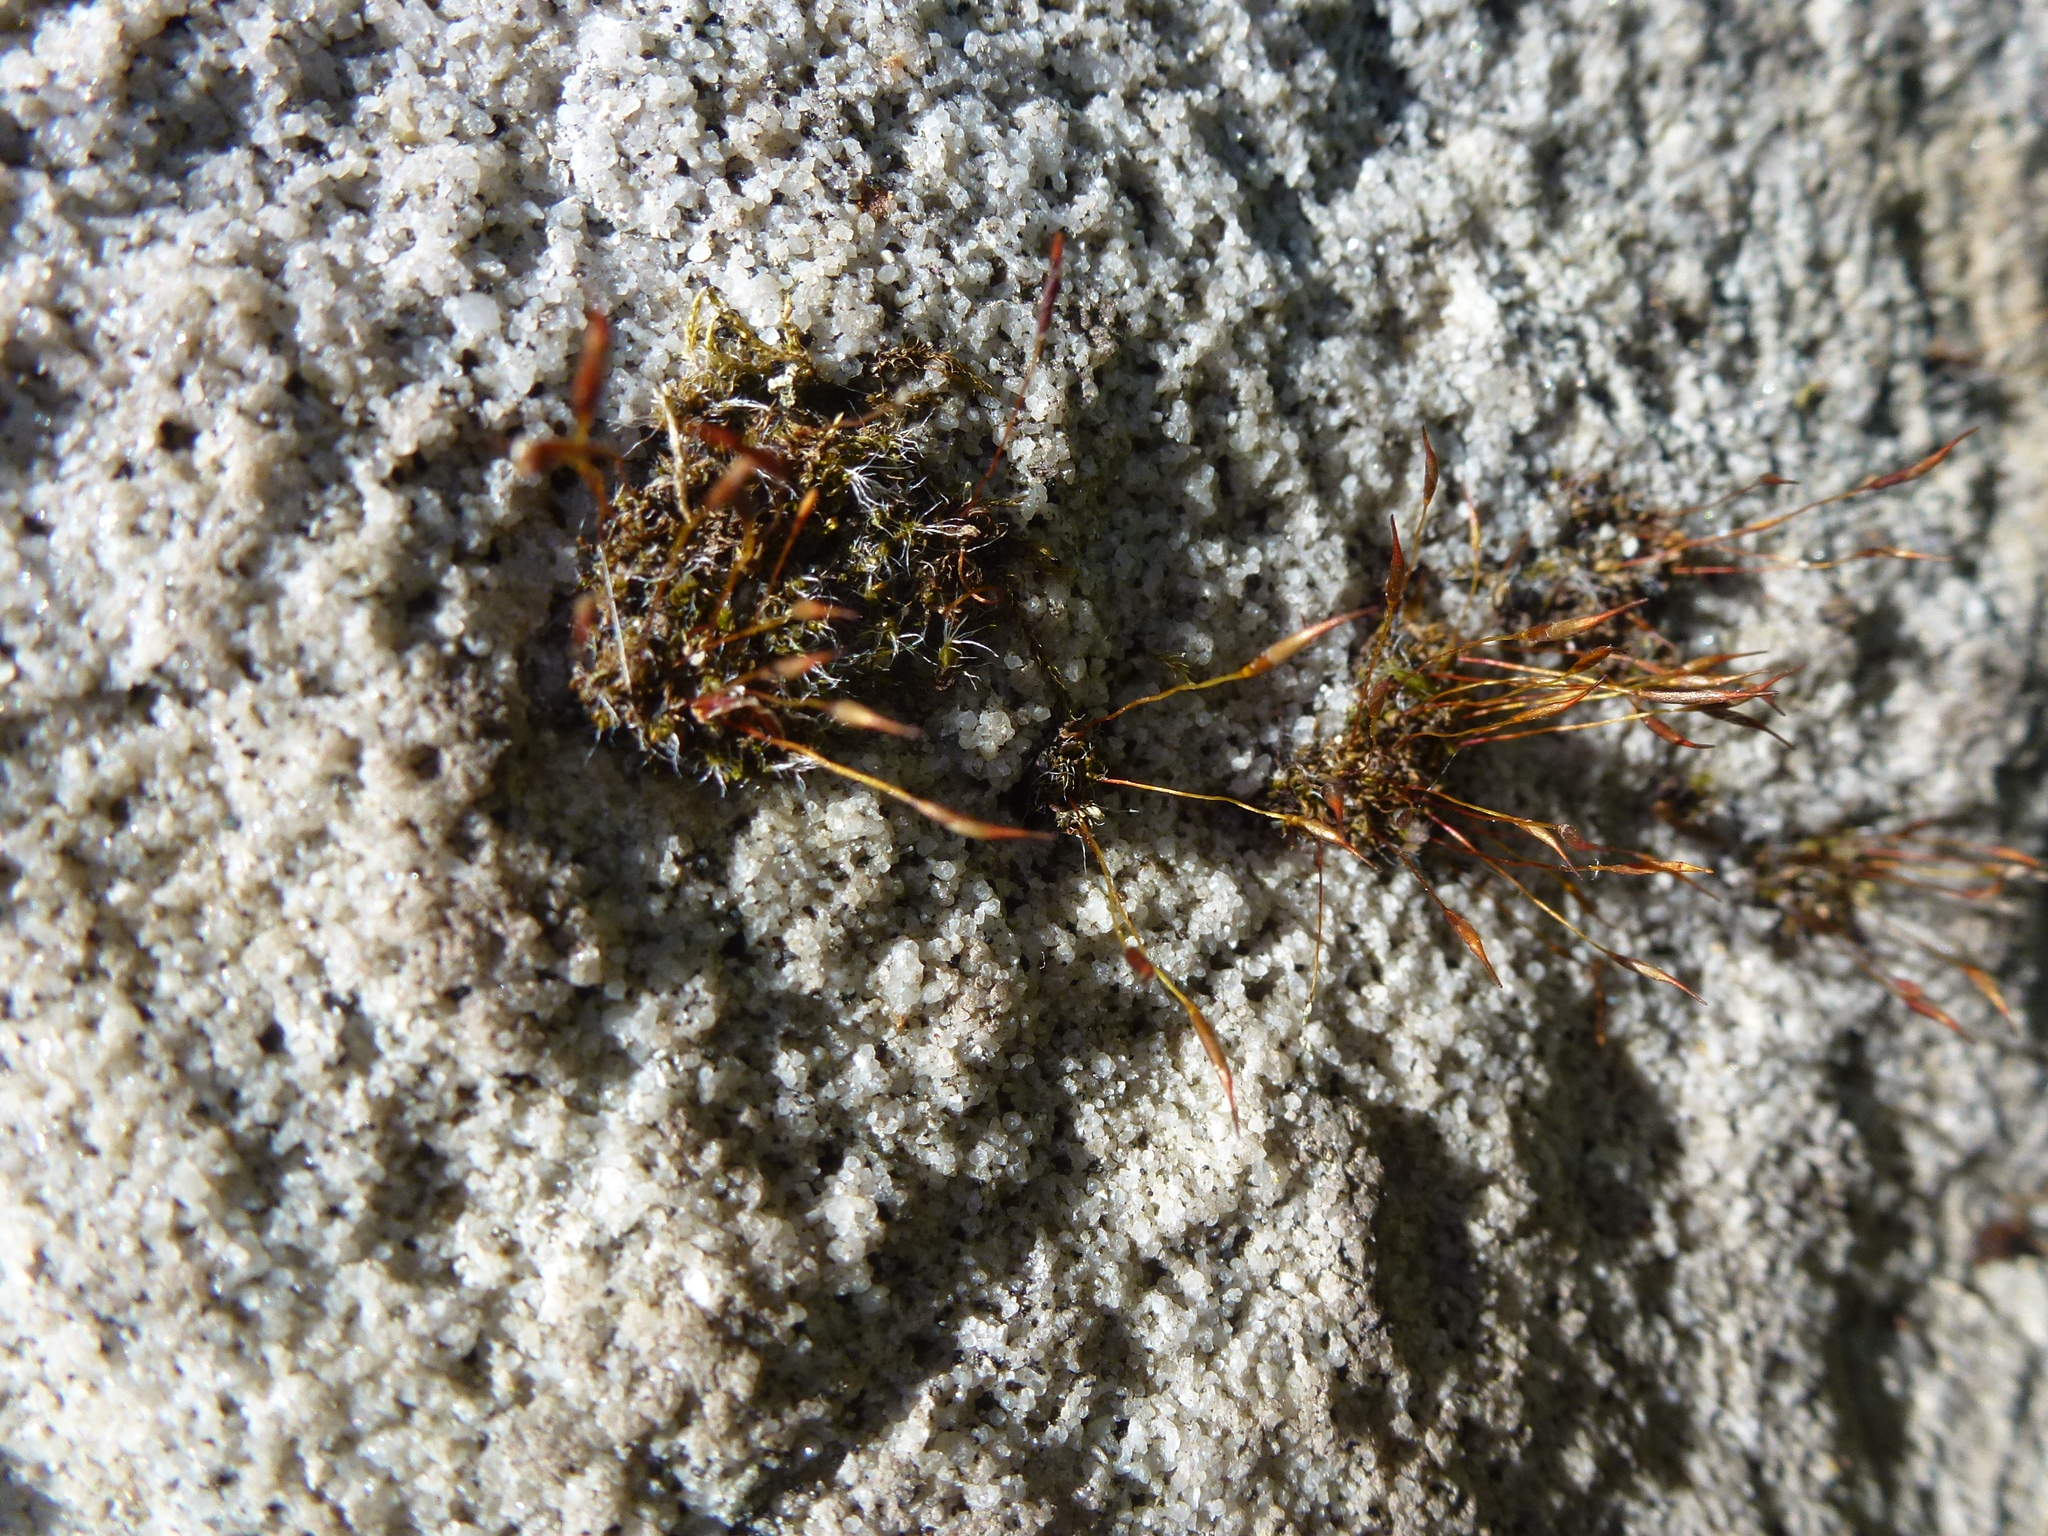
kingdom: Plantae
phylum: Bryophyta
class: Bryopsida
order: Pottiales
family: Pottiaceae
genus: Tortula
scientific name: Tortula muralis
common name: Wall screw-moss
